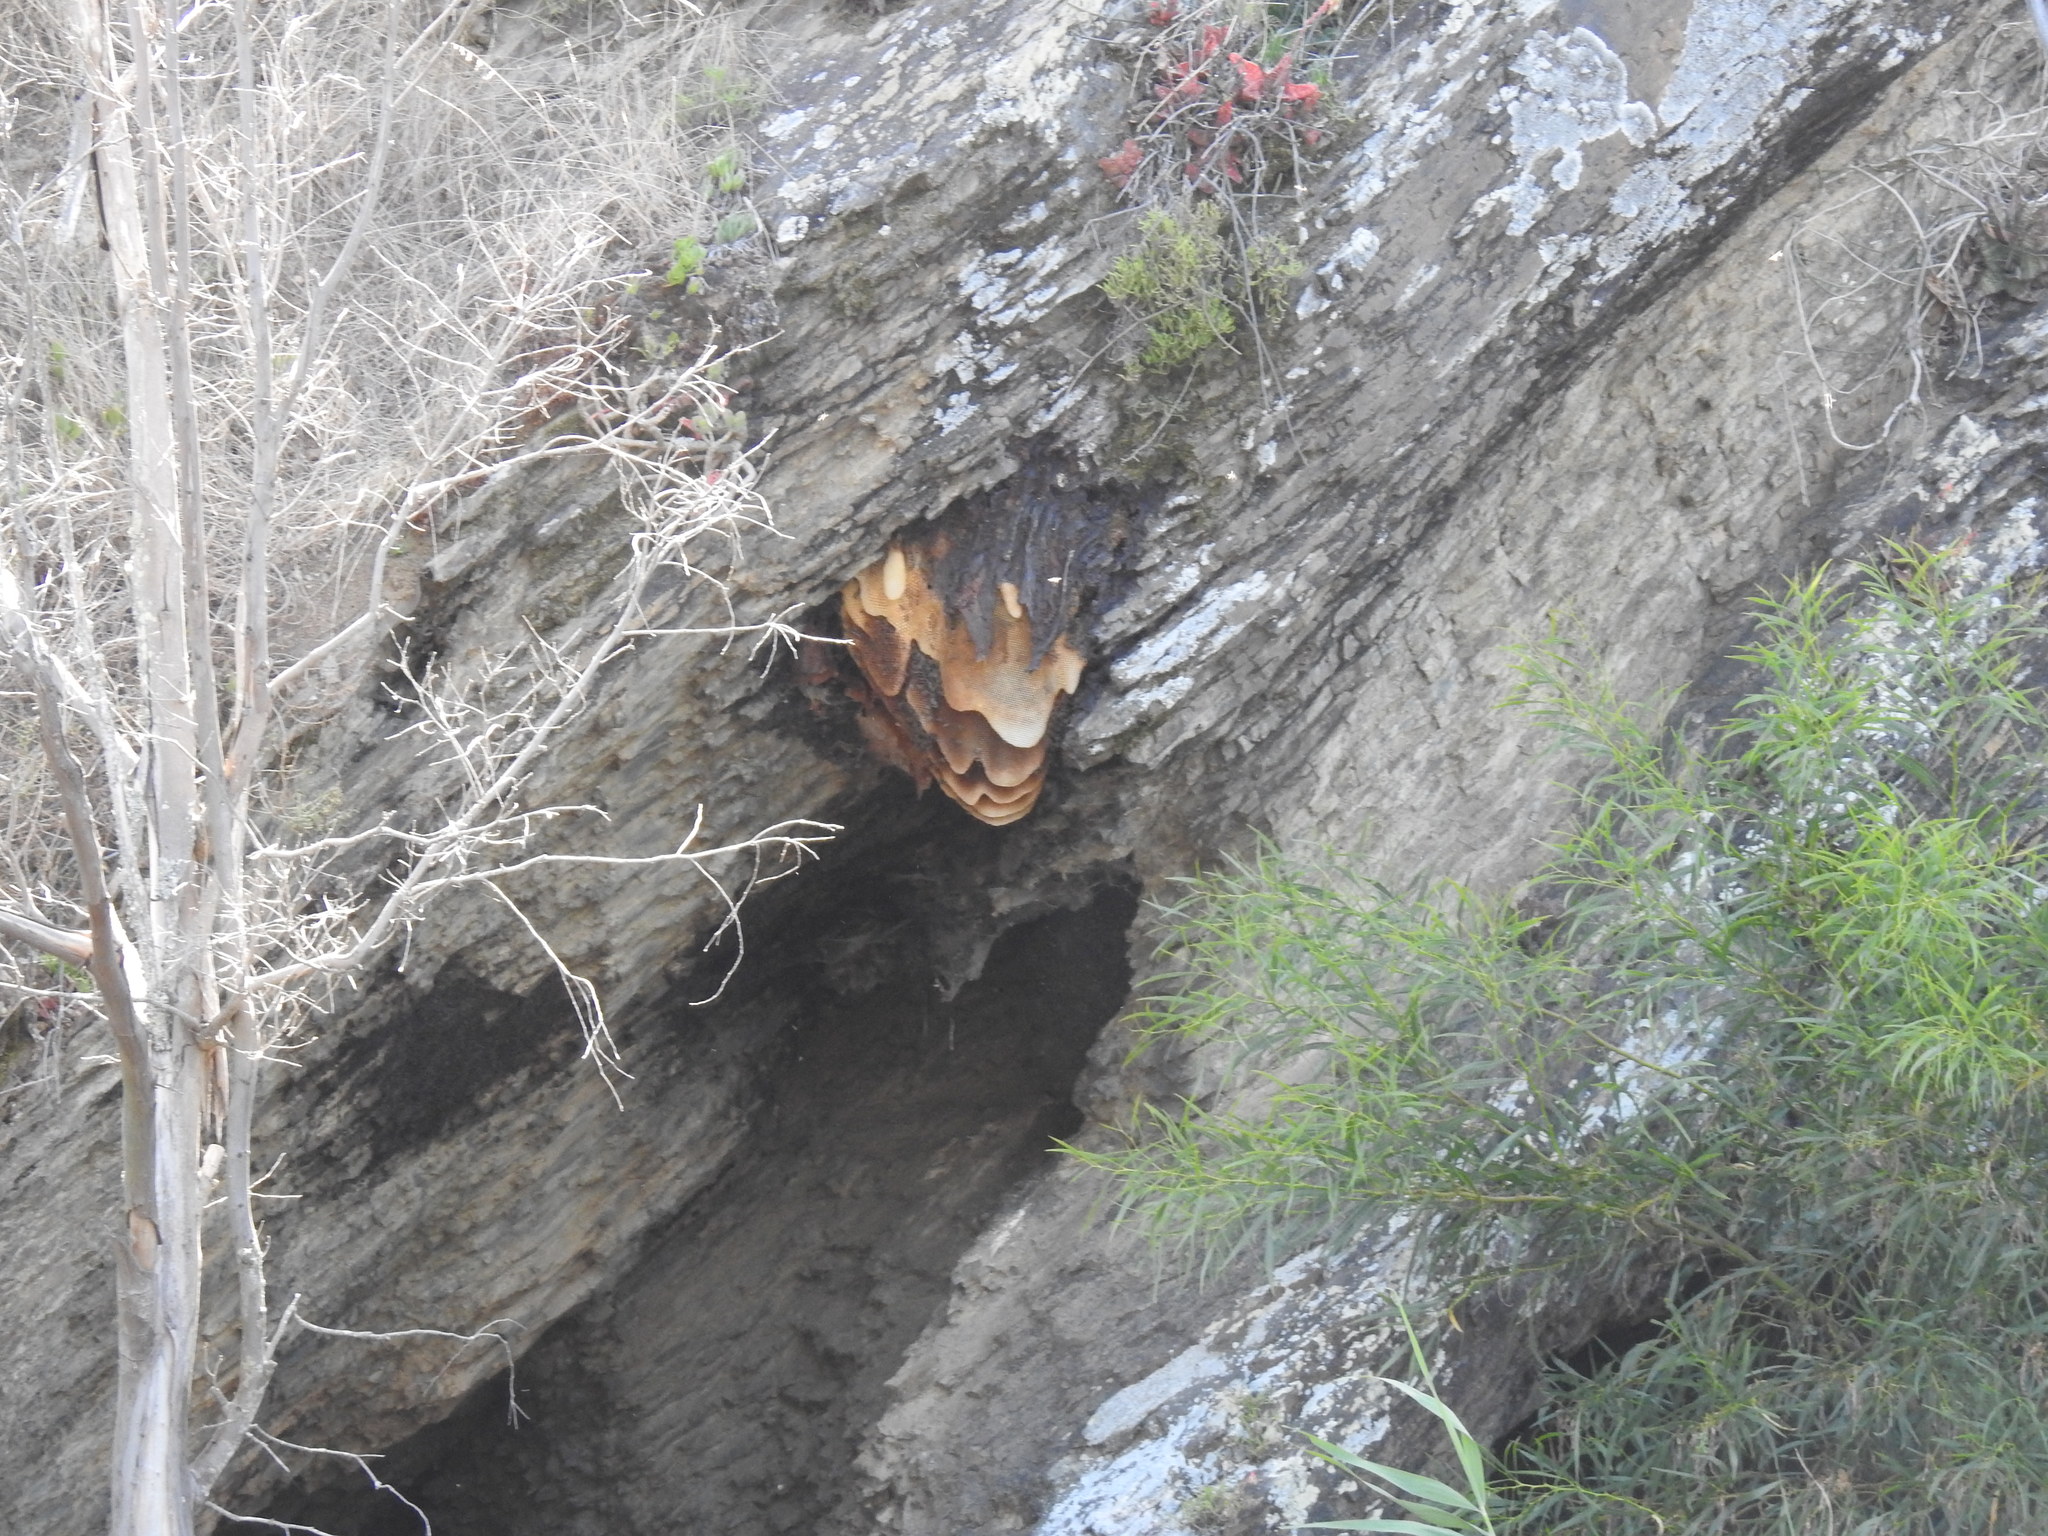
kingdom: Animalia
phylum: Arthropoda
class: Insecta
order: Hymenoptera
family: Apidae
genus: Apis
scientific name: Apis mellifera
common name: Honey bee
